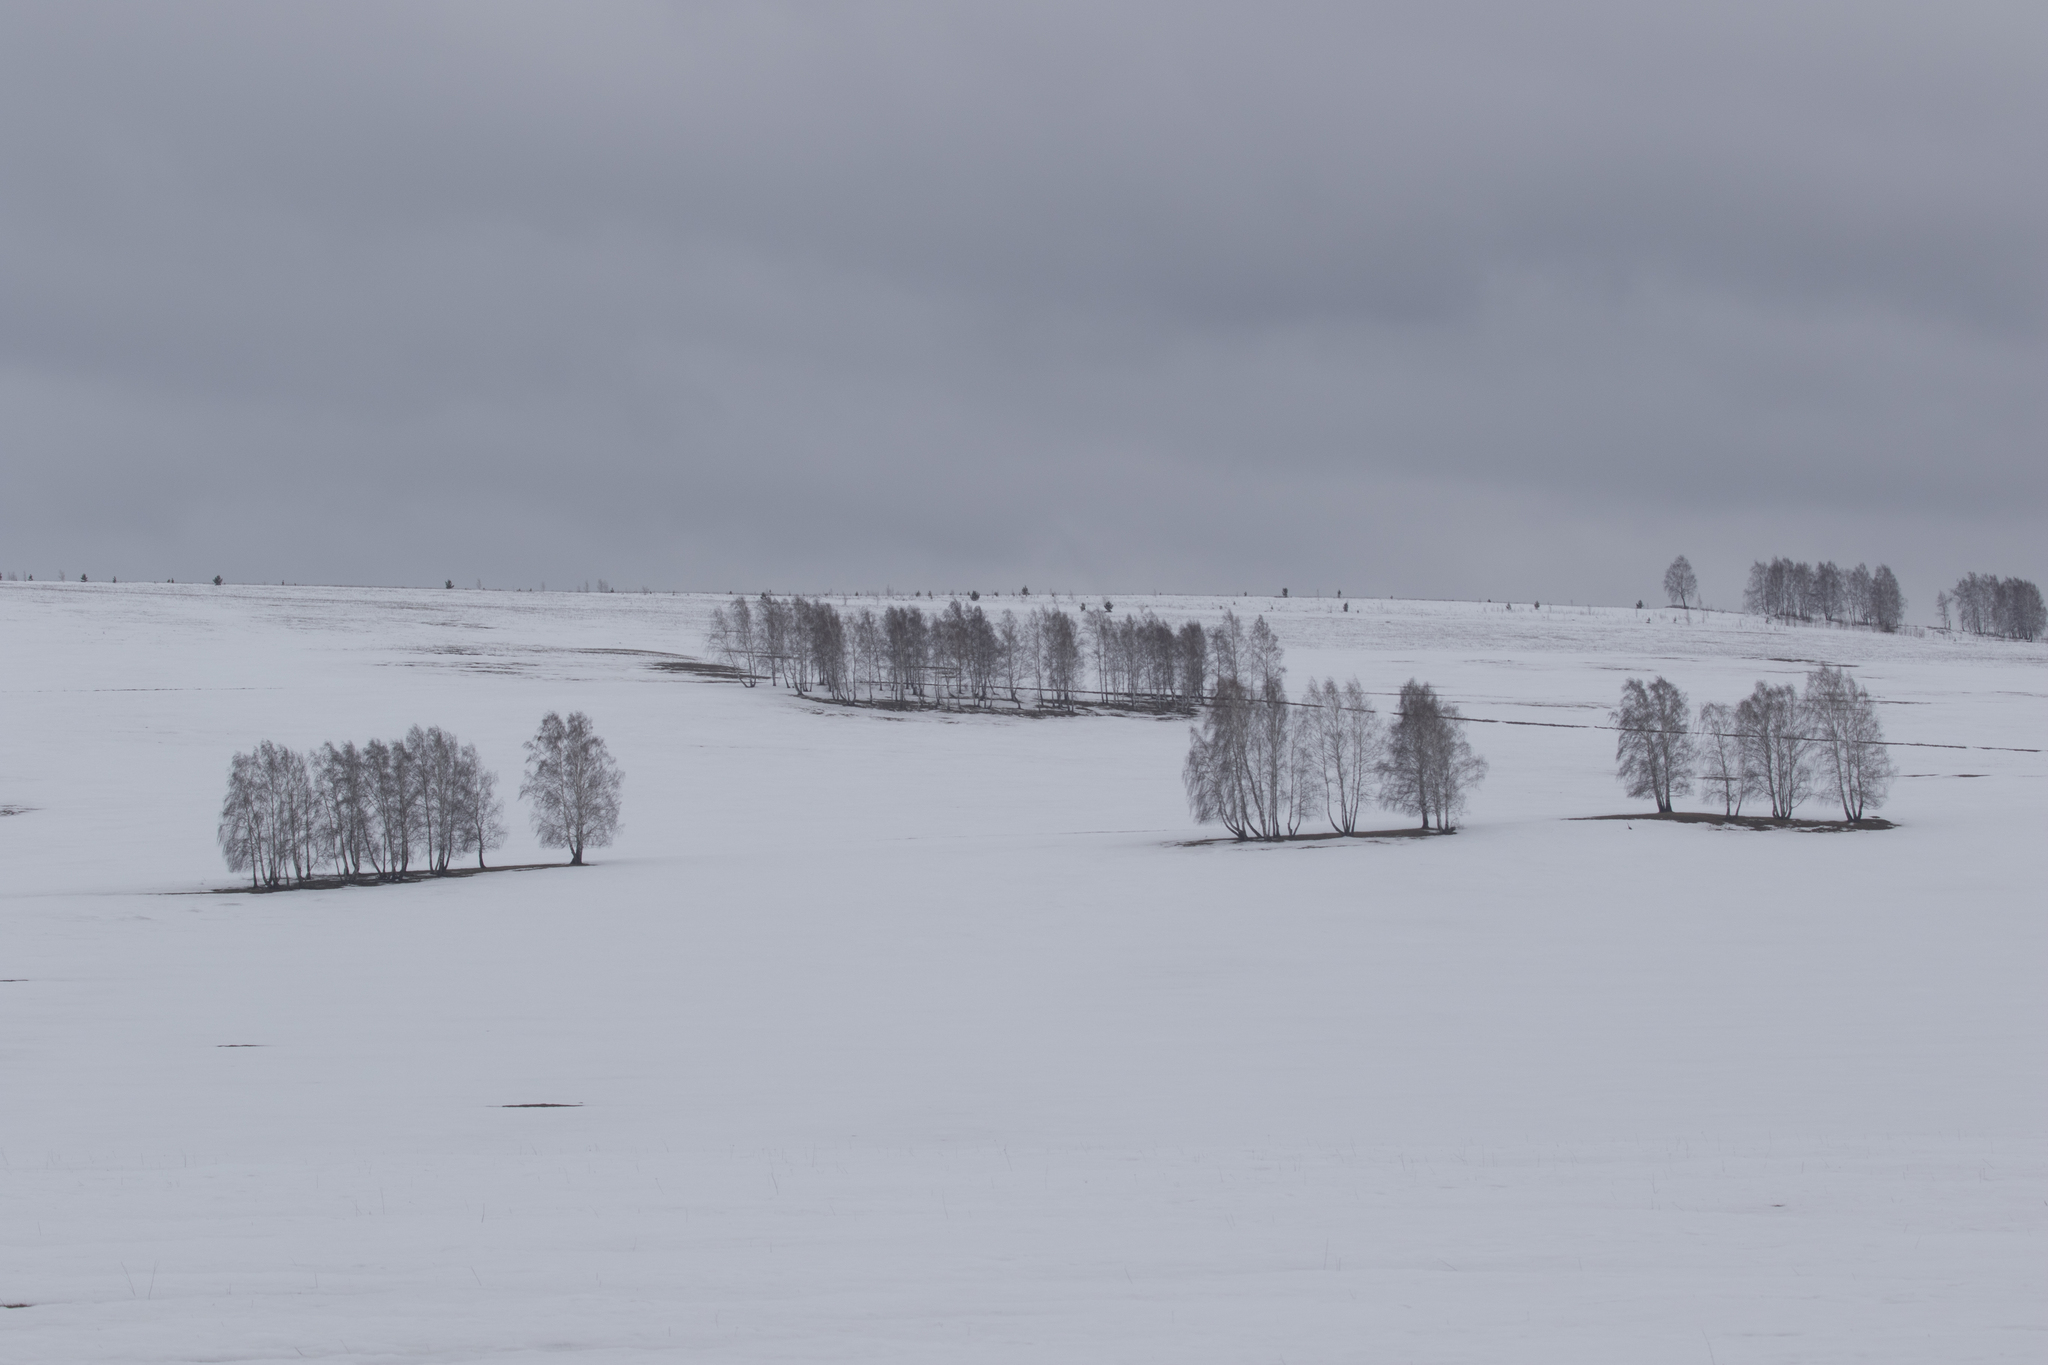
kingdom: Plantae
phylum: Tracheophyta
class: Magnoliopsida
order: Fagales
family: Betulaceae
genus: Betula
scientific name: Betula pendula
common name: Silver birch
